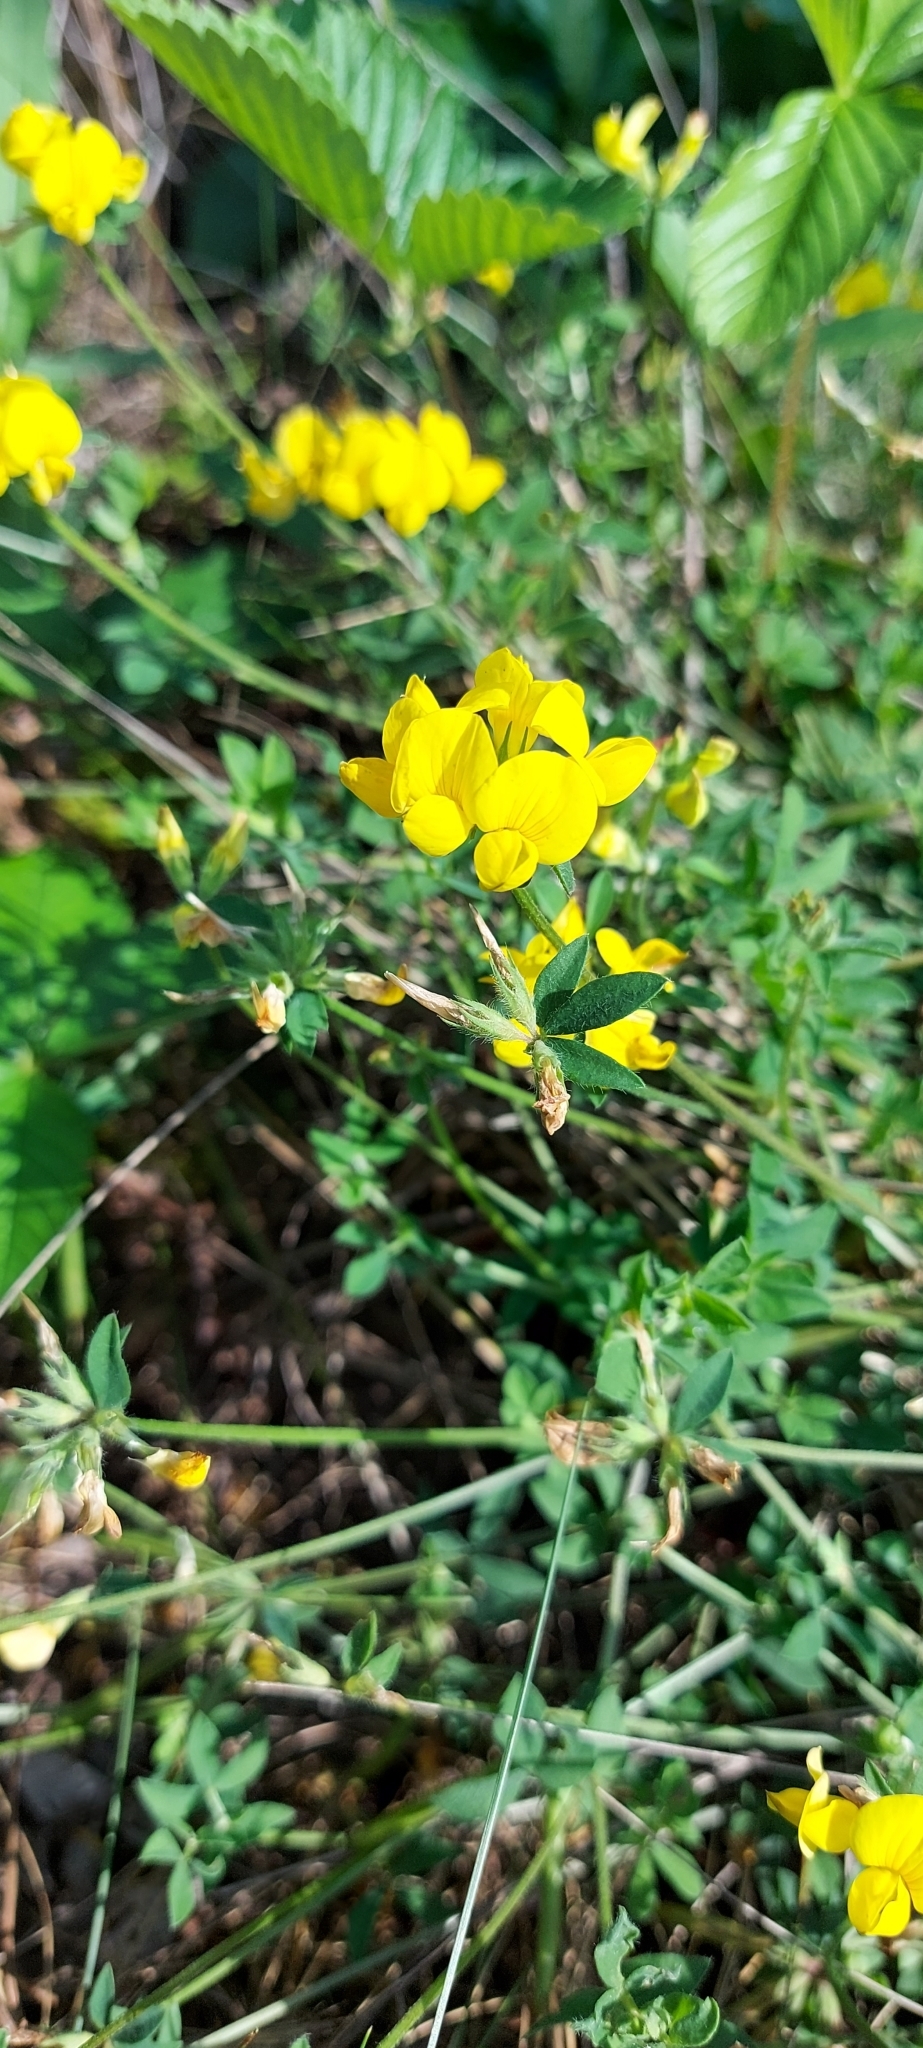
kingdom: Plantae
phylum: Tracheophyta
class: Magnoliopsida
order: Fabales
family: Fabaceae
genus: Lotus
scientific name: Lotus corniculatus
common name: Common bird's-foot-trefoil
